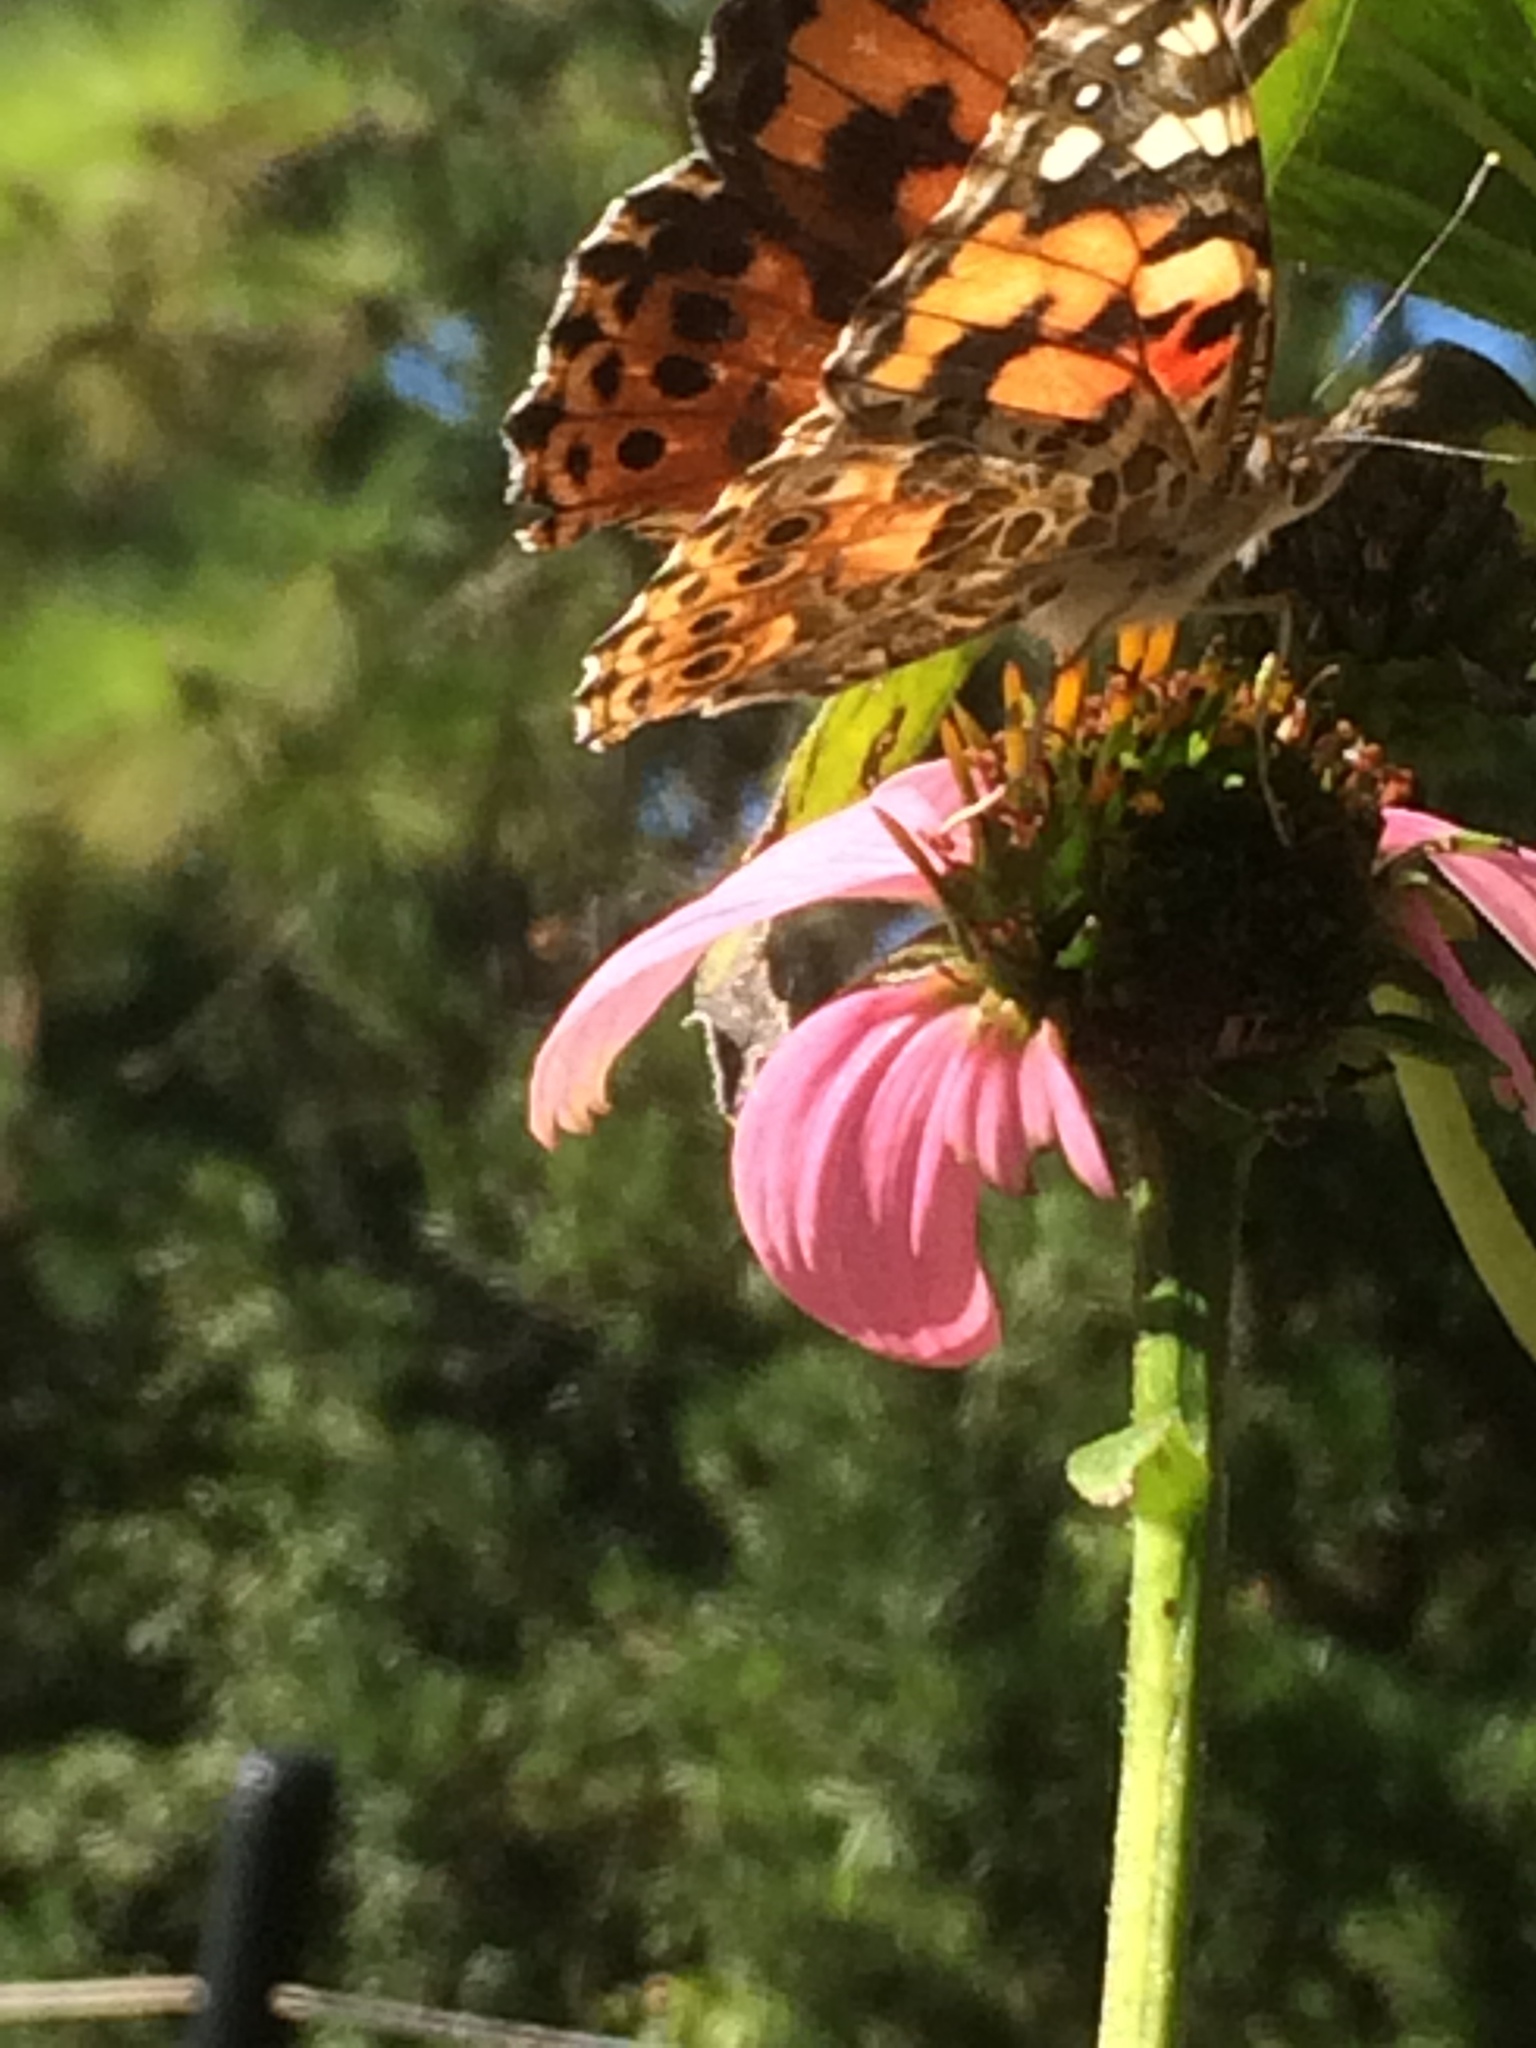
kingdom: Animalia
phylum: Arthropoda
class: Insecta
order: Lepidoptera
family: Nymphalidae
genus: Vanessa
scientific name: Vanessa cardui
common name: Painted lady
